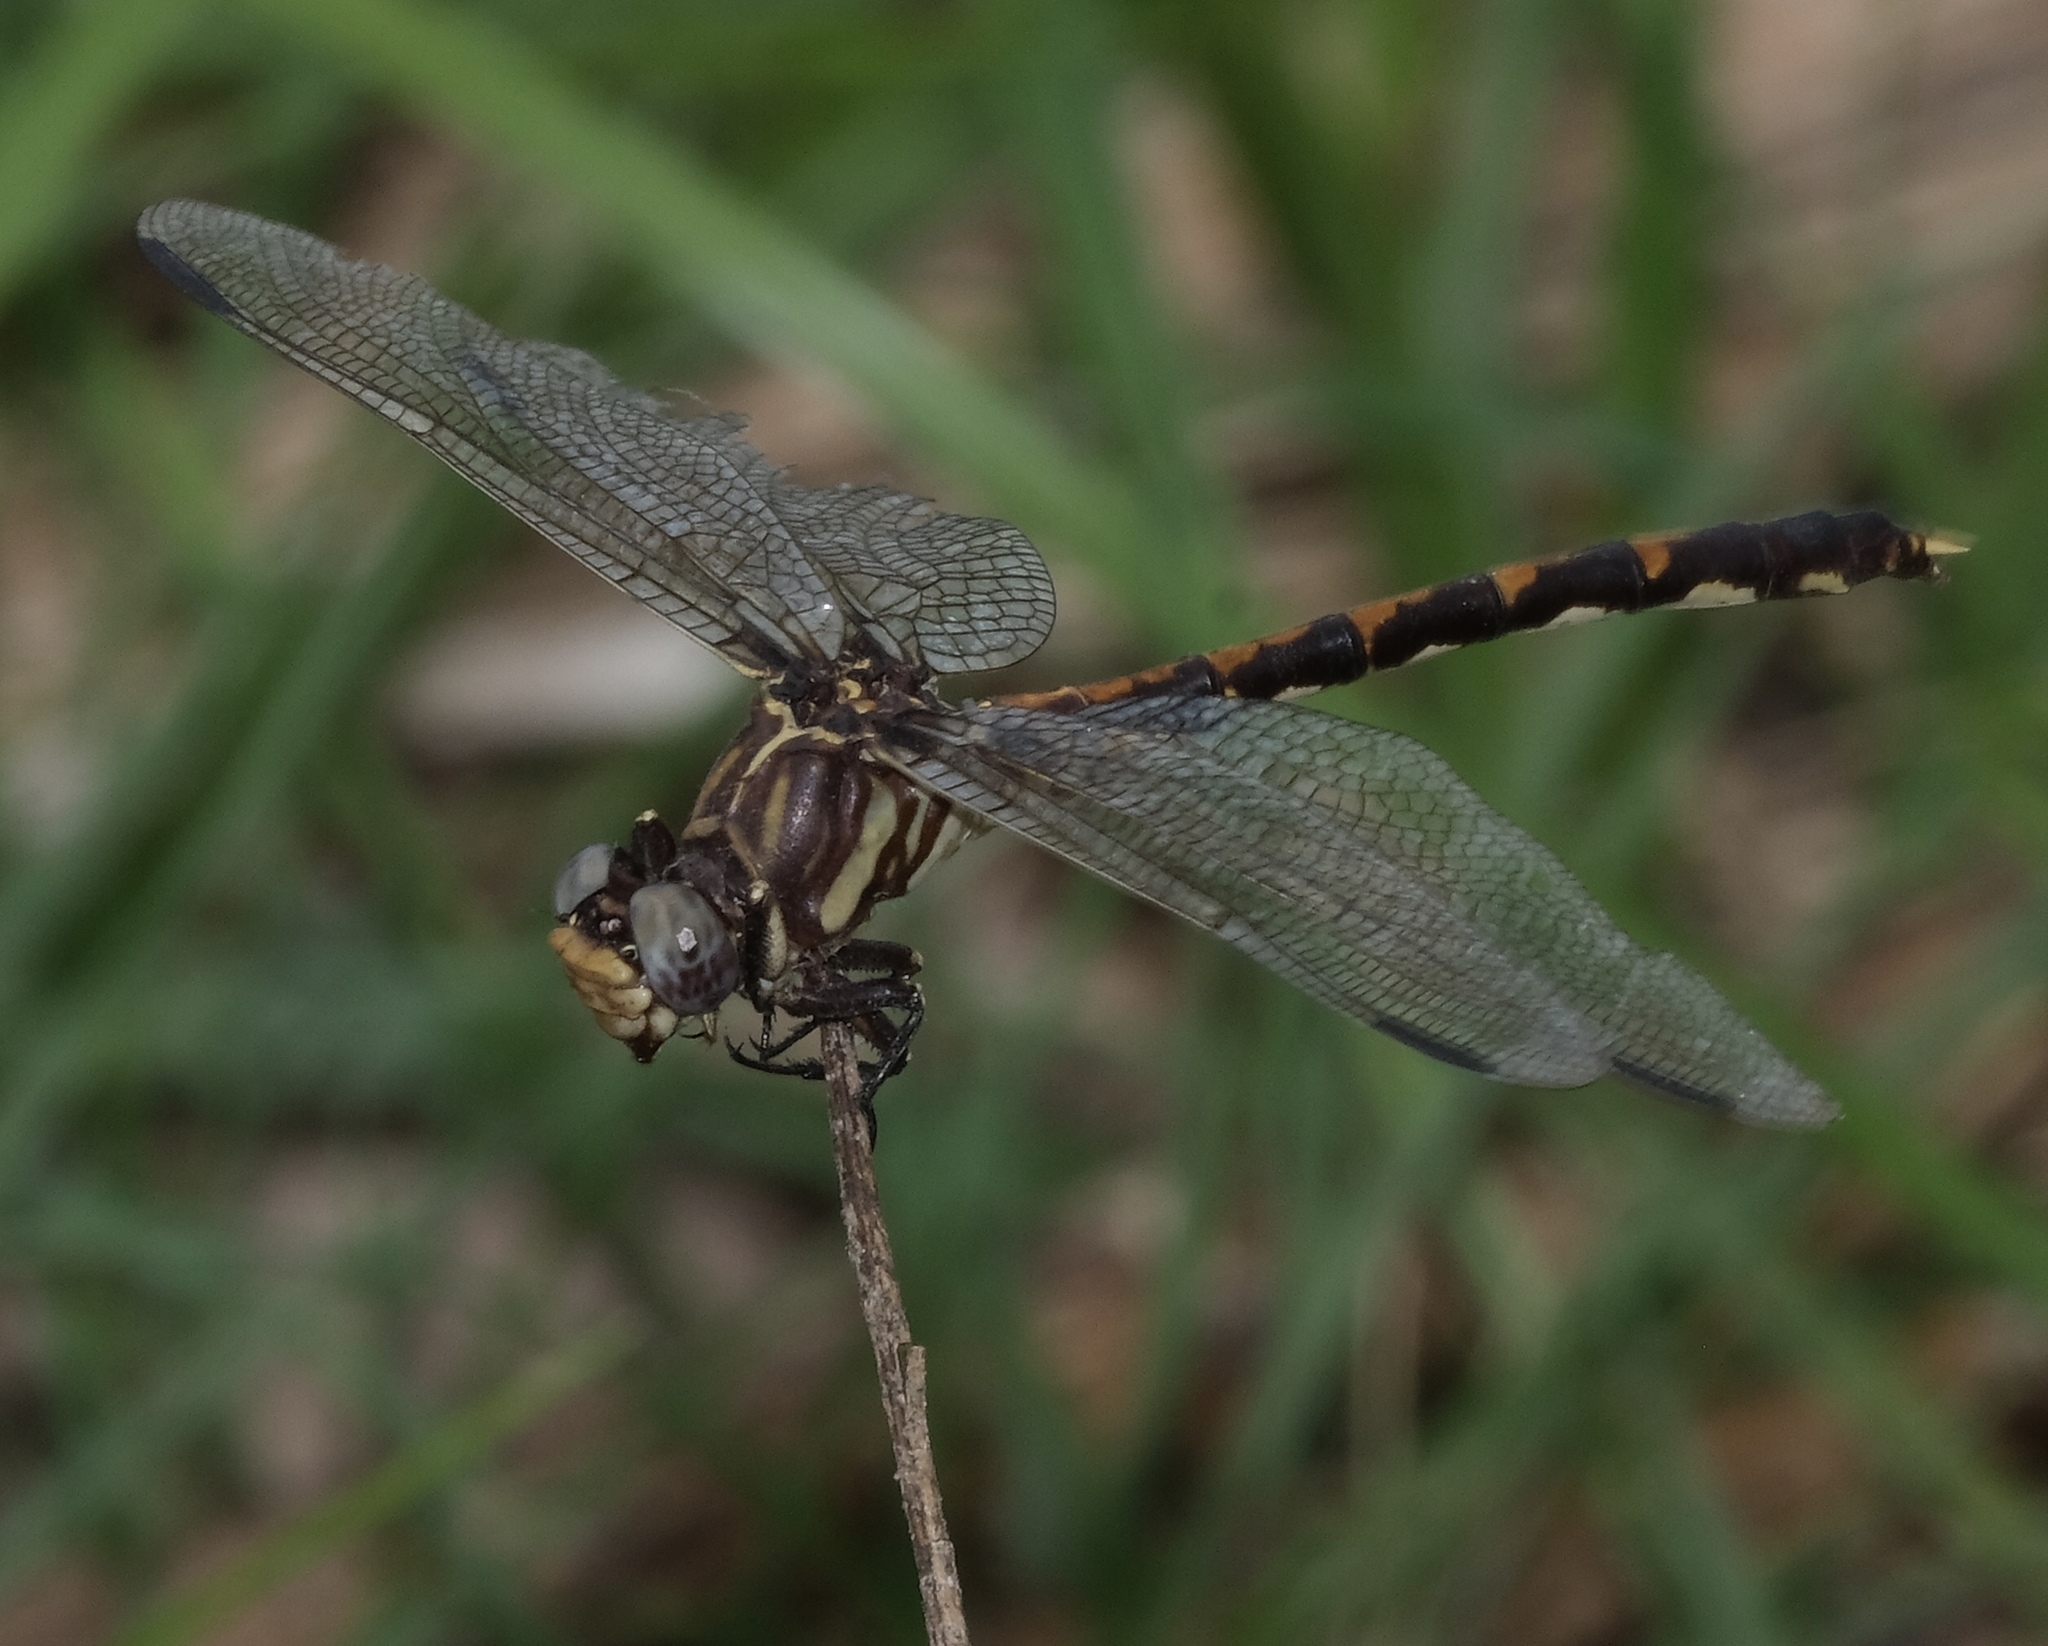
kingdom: Animalia
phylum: Arthropoda
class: Insecta
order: Odonata
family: Gomphidae
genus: Progomphus
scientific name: Progomphus obscurus
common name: Common sanddragon
